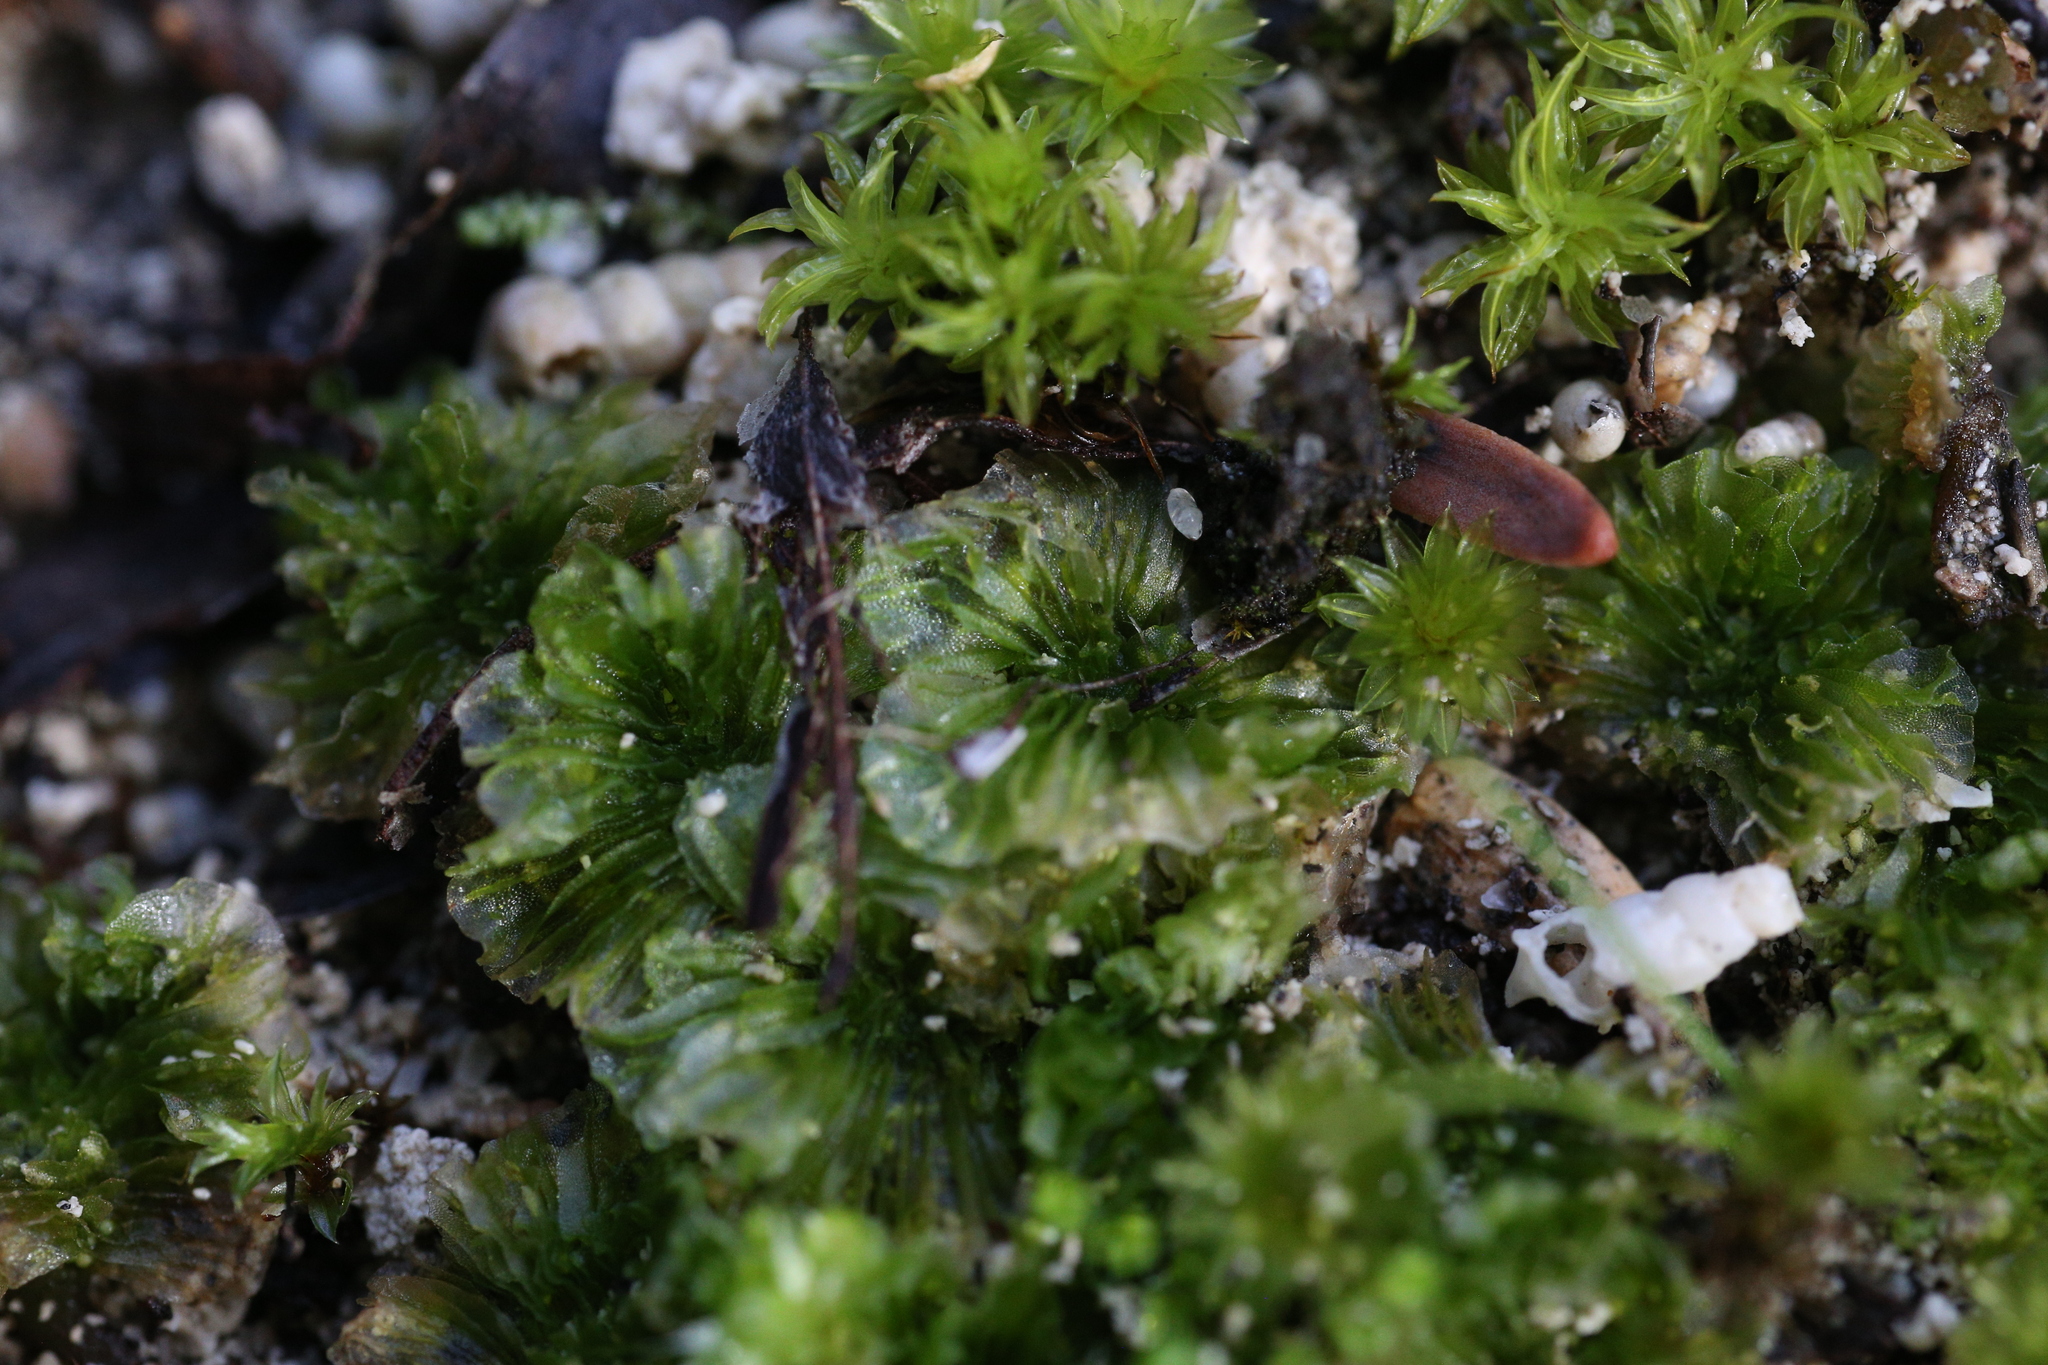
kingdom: Plantae
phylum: Marchantiophyta
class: Jungermanniopsida
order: Fossombroniales
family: Petalophyllaceae
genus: Petalophyllum
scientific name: Petalophyllum preissii
